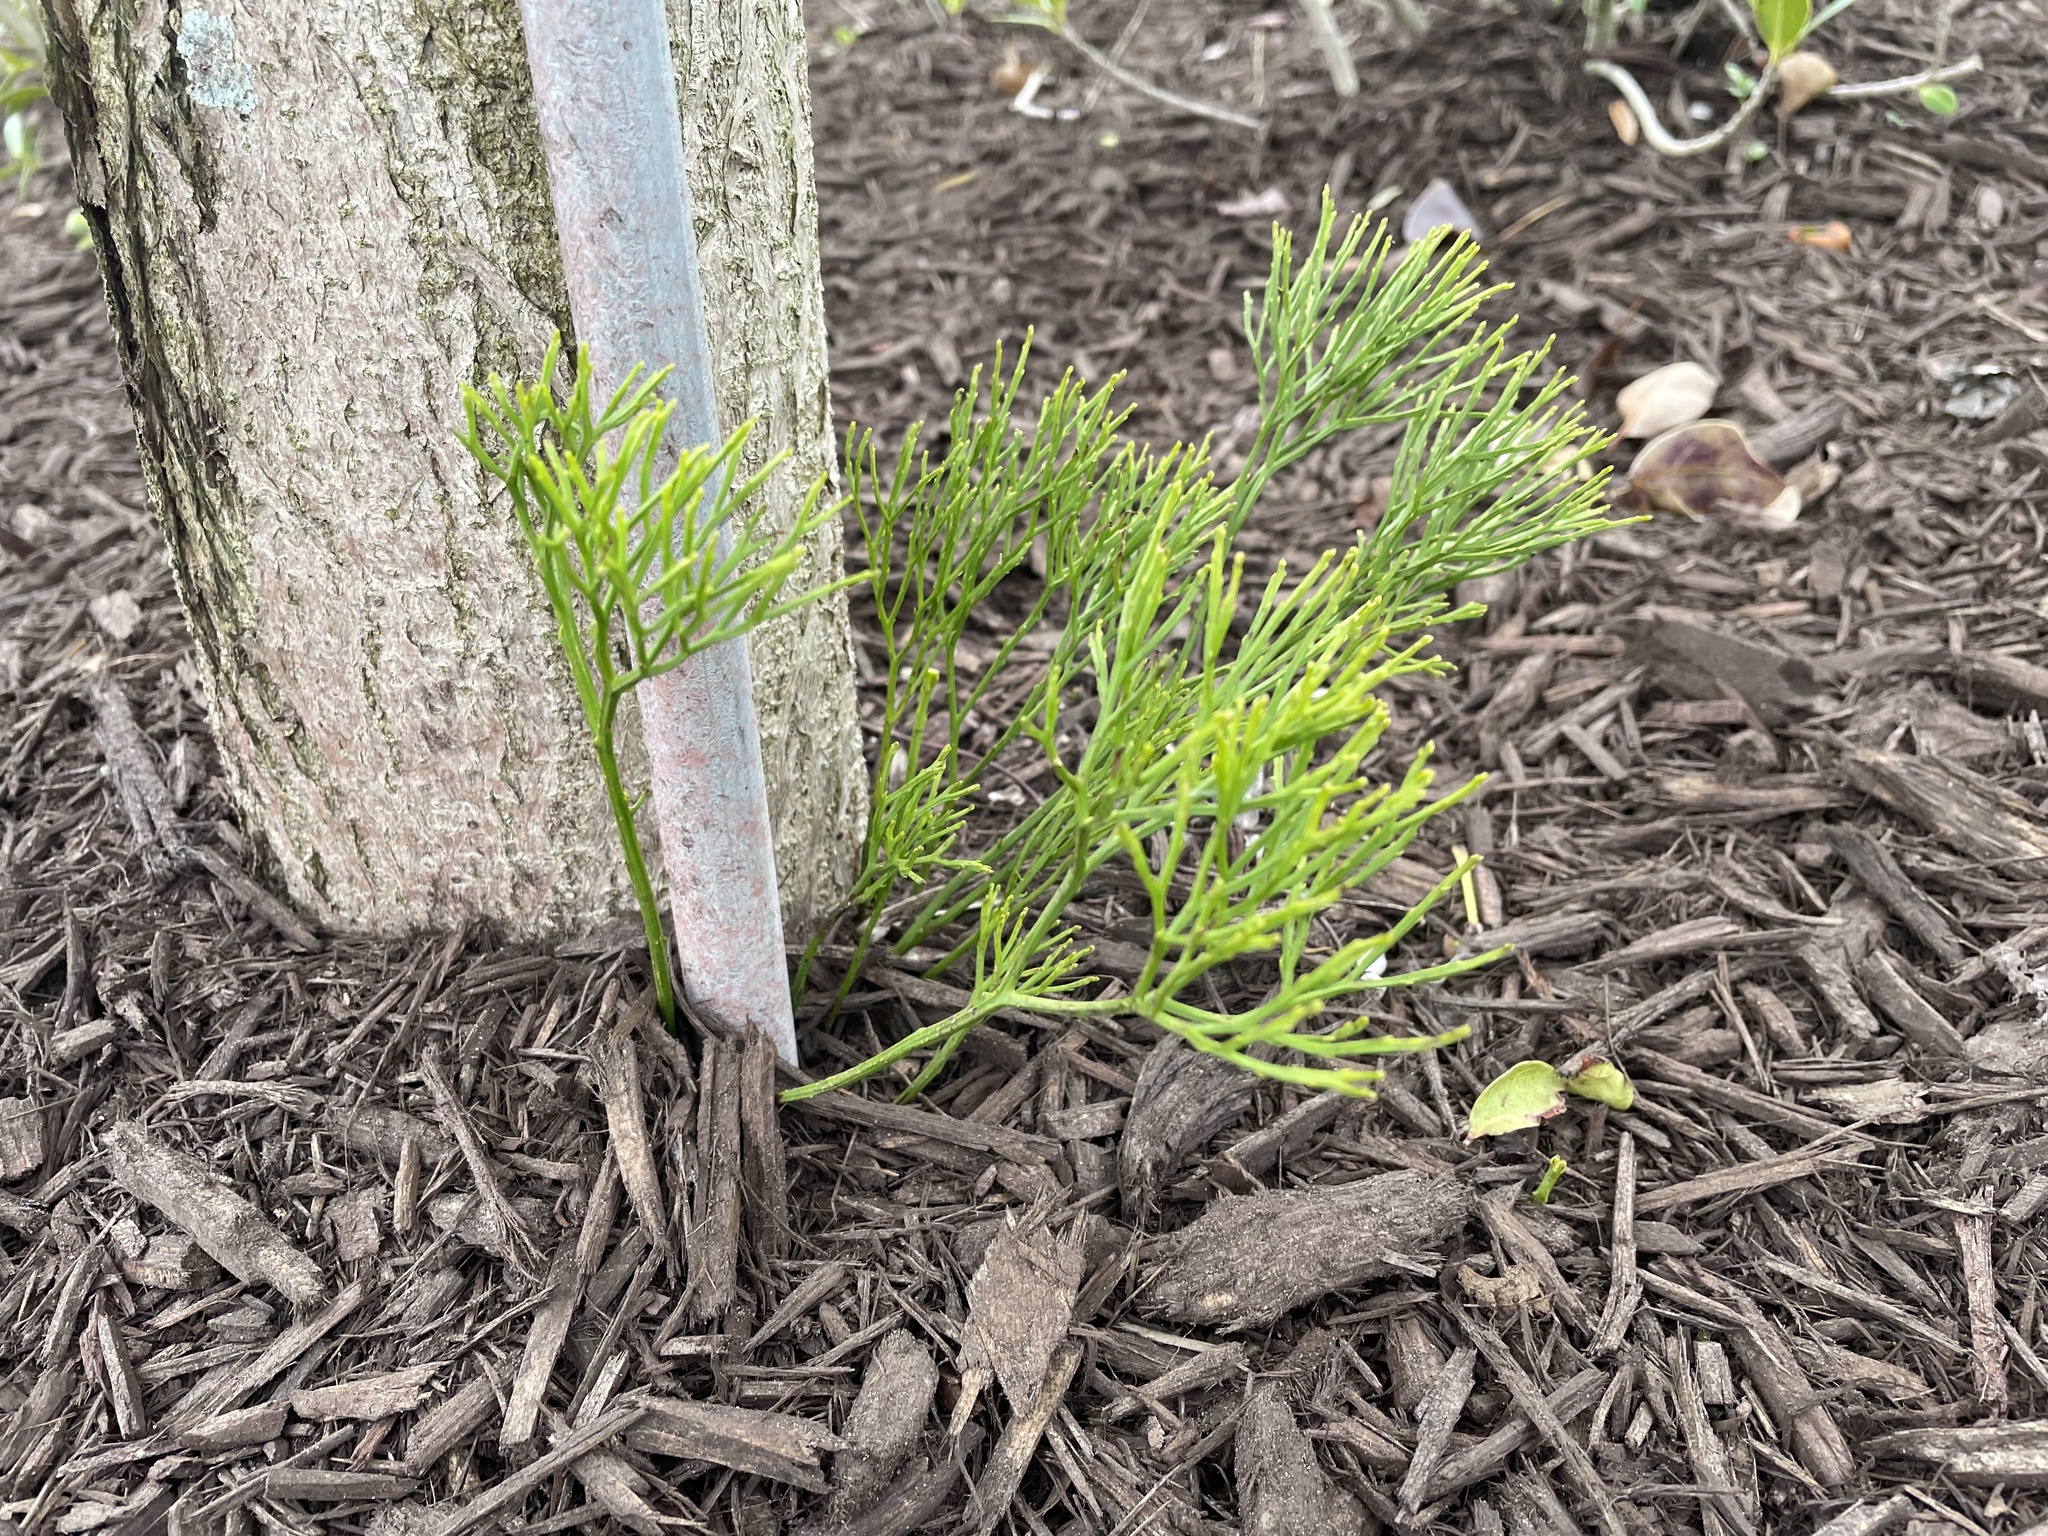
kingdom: Plantae
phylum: Tracheophyta
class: Polypodiopsida
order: Psilotales
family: Psilotaceae
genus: Psilotum
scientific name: Psilotum nudum
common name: Skeleton fork fern
